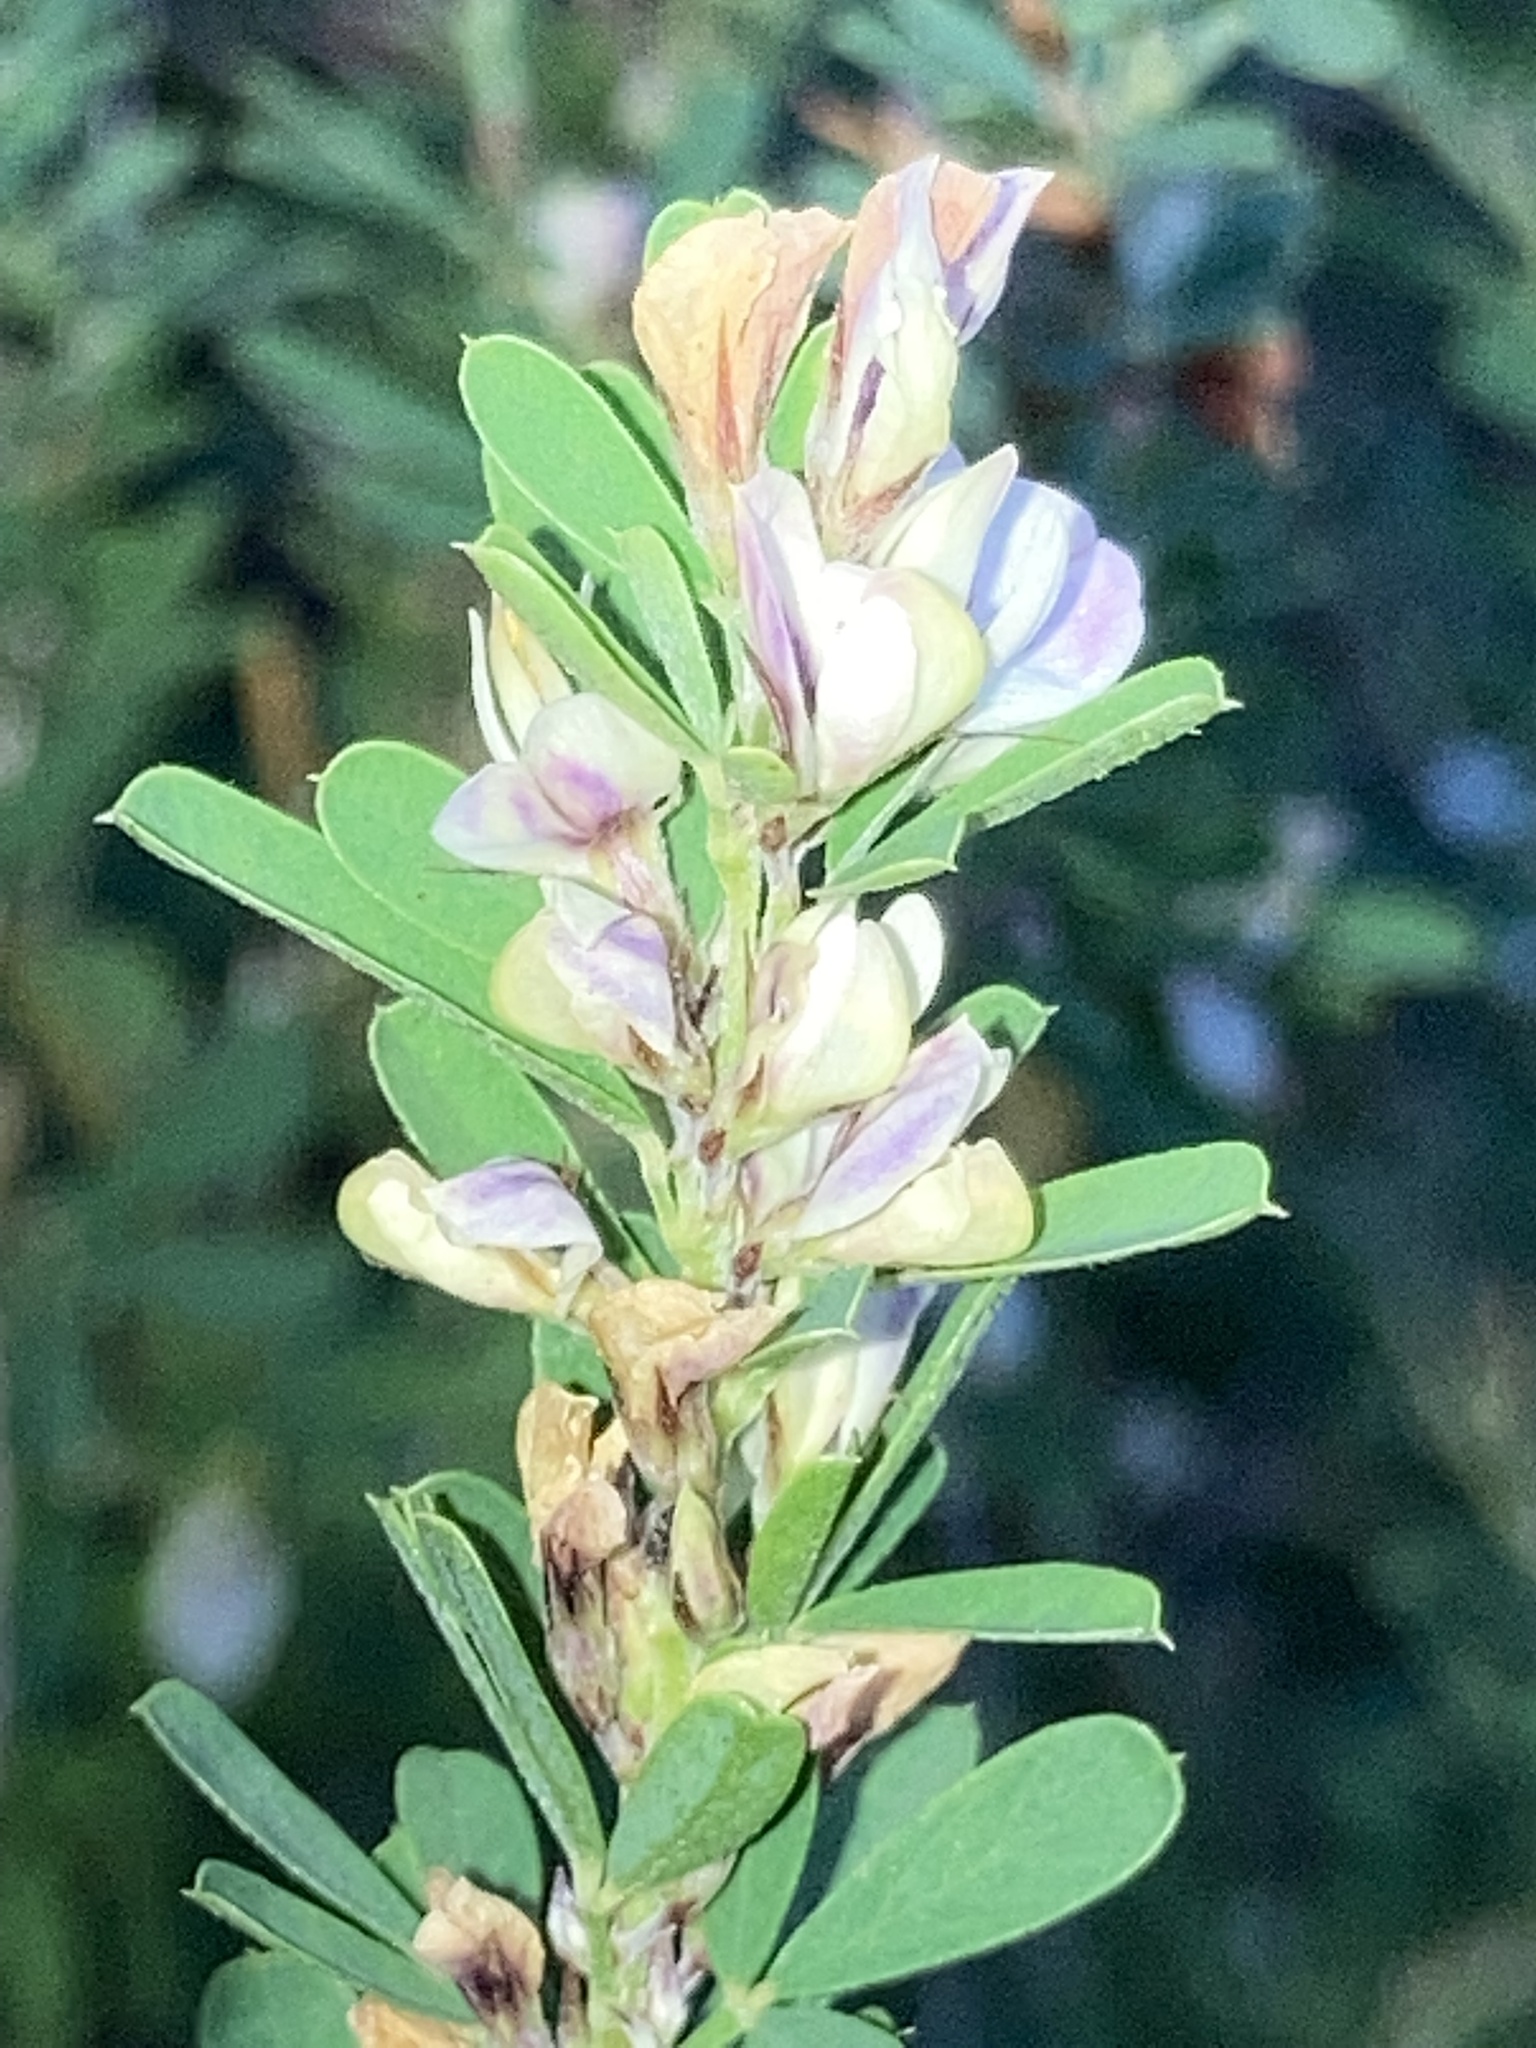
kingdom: Plantae
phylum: Tracheophyta
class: Magnoliopsida
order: Fabales
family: Fabaceae
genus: Lespedeza
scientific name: Lespedeza cuneata
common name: Chinese bush-clover
